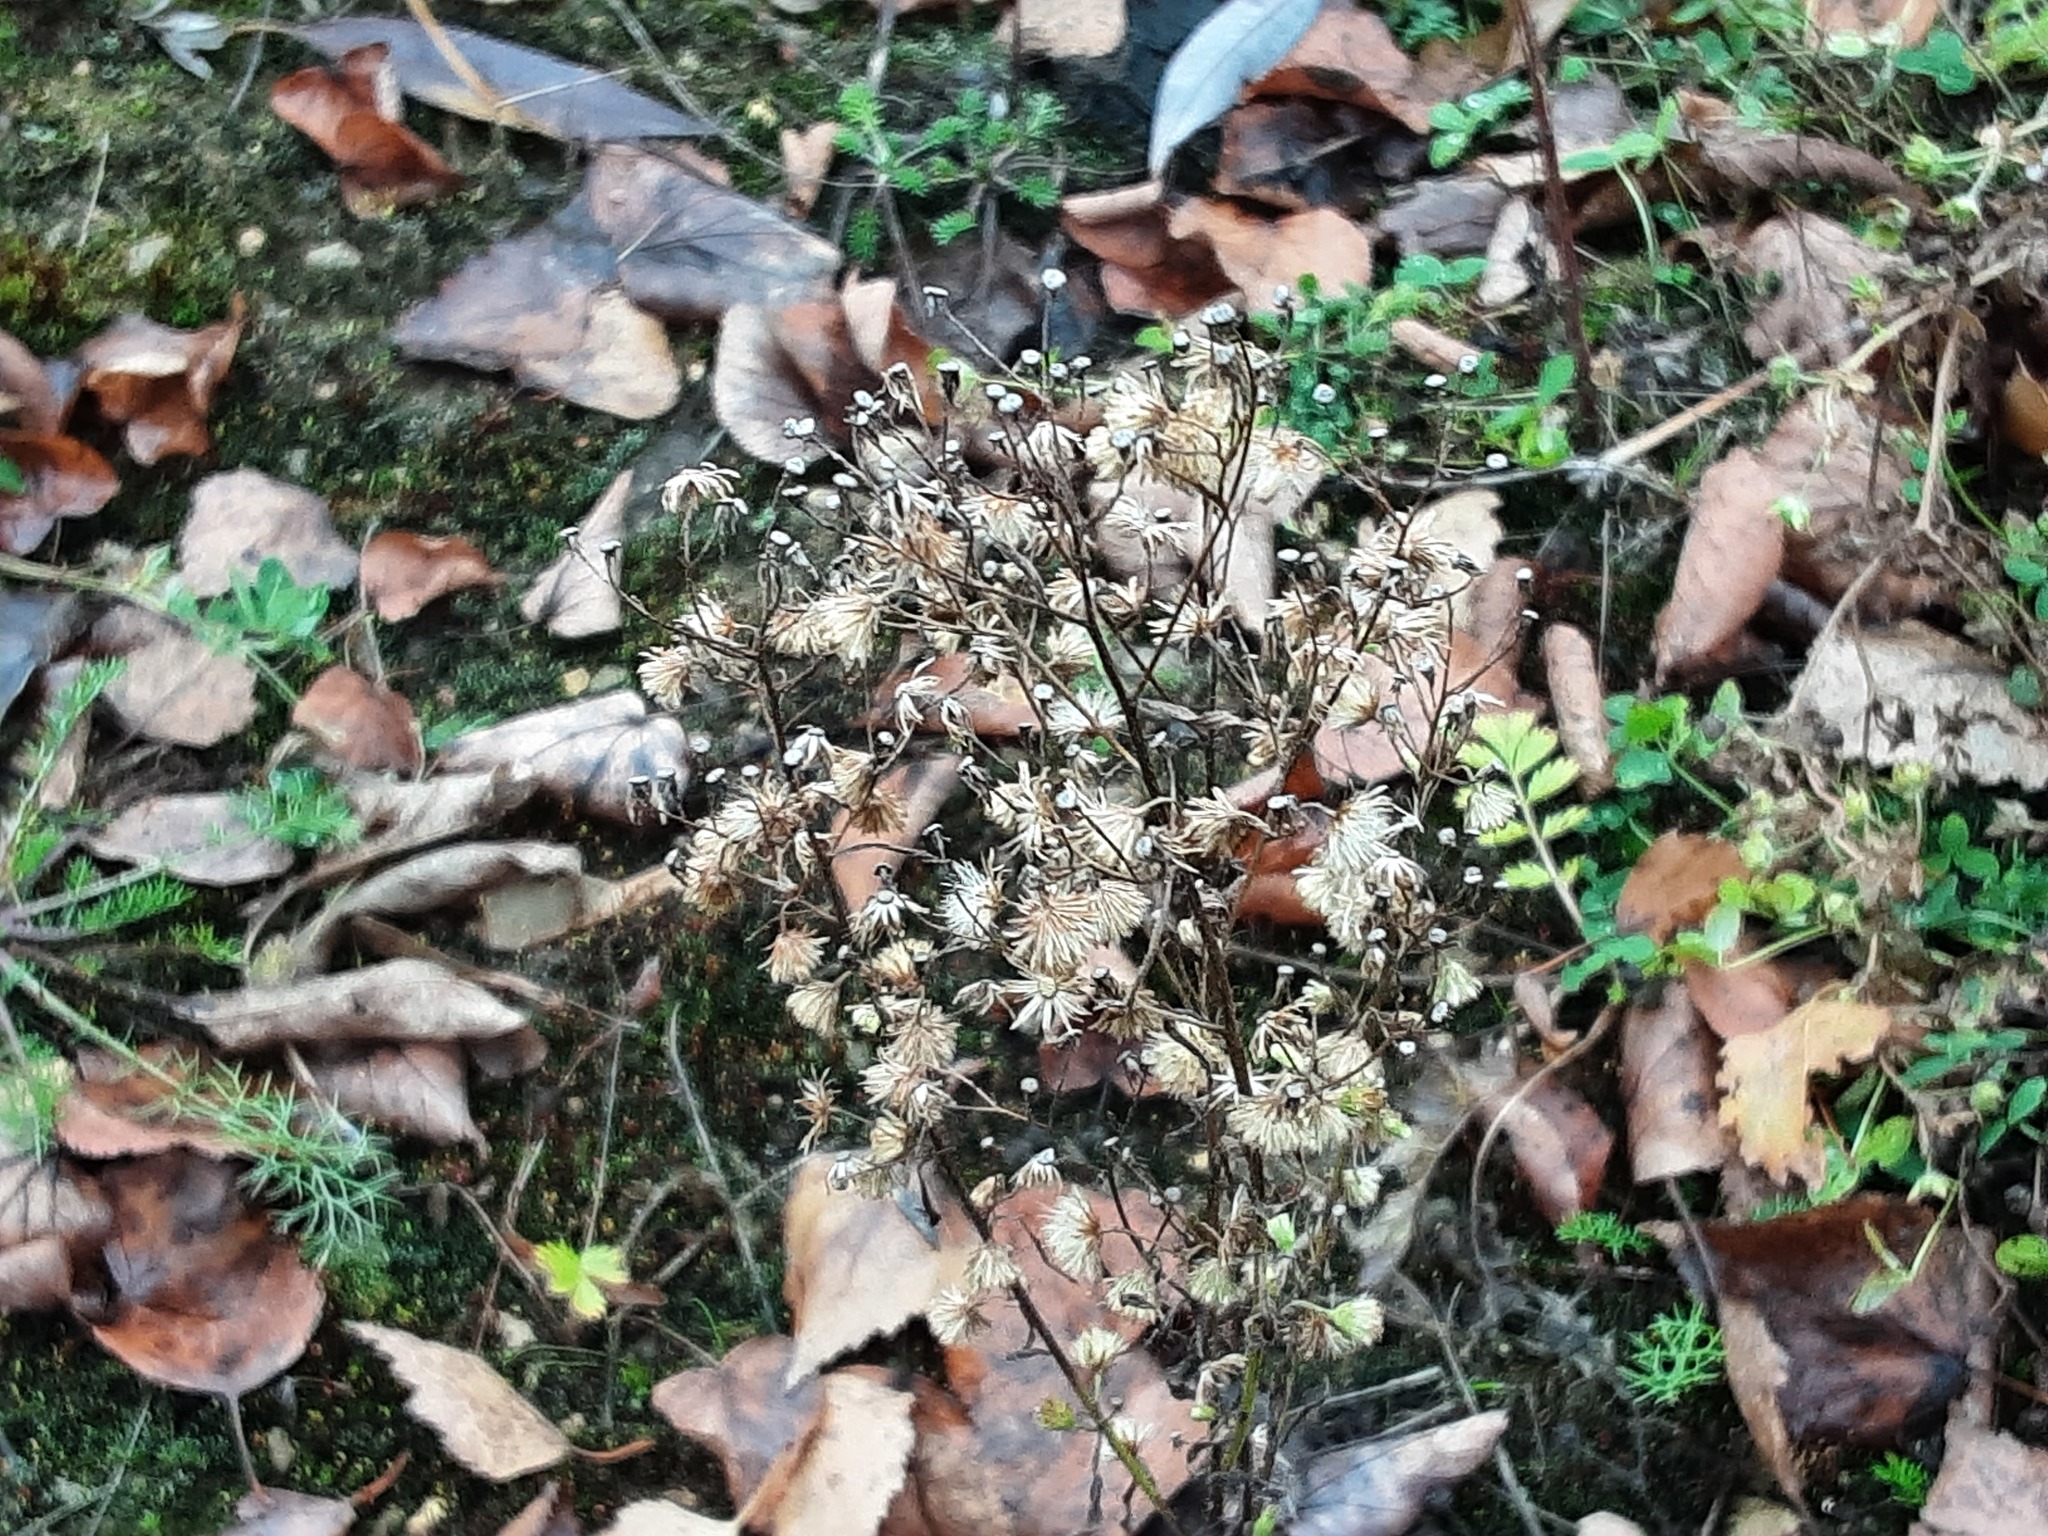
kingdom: Plantae
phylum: Tracheophyta
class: Magnoliopsida
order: Asterales
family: Asteraceae
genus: Erigeron
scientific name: Erigeron canadensis
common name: Canadian fleabane
